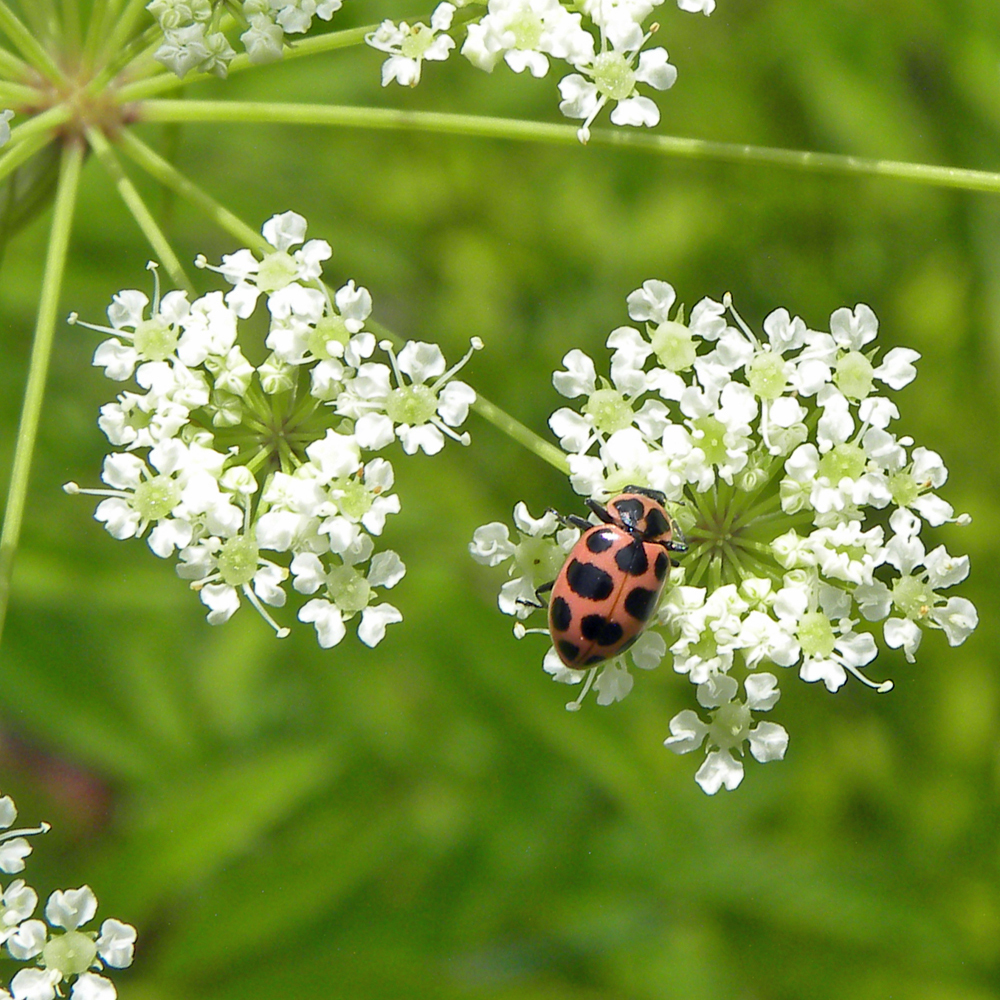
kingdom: Animalia
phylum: Arthropoda
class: Insecta
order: Coleoptera
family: Coccinellidae
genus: Coleomegilla
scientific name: Coleomegilla maculata
